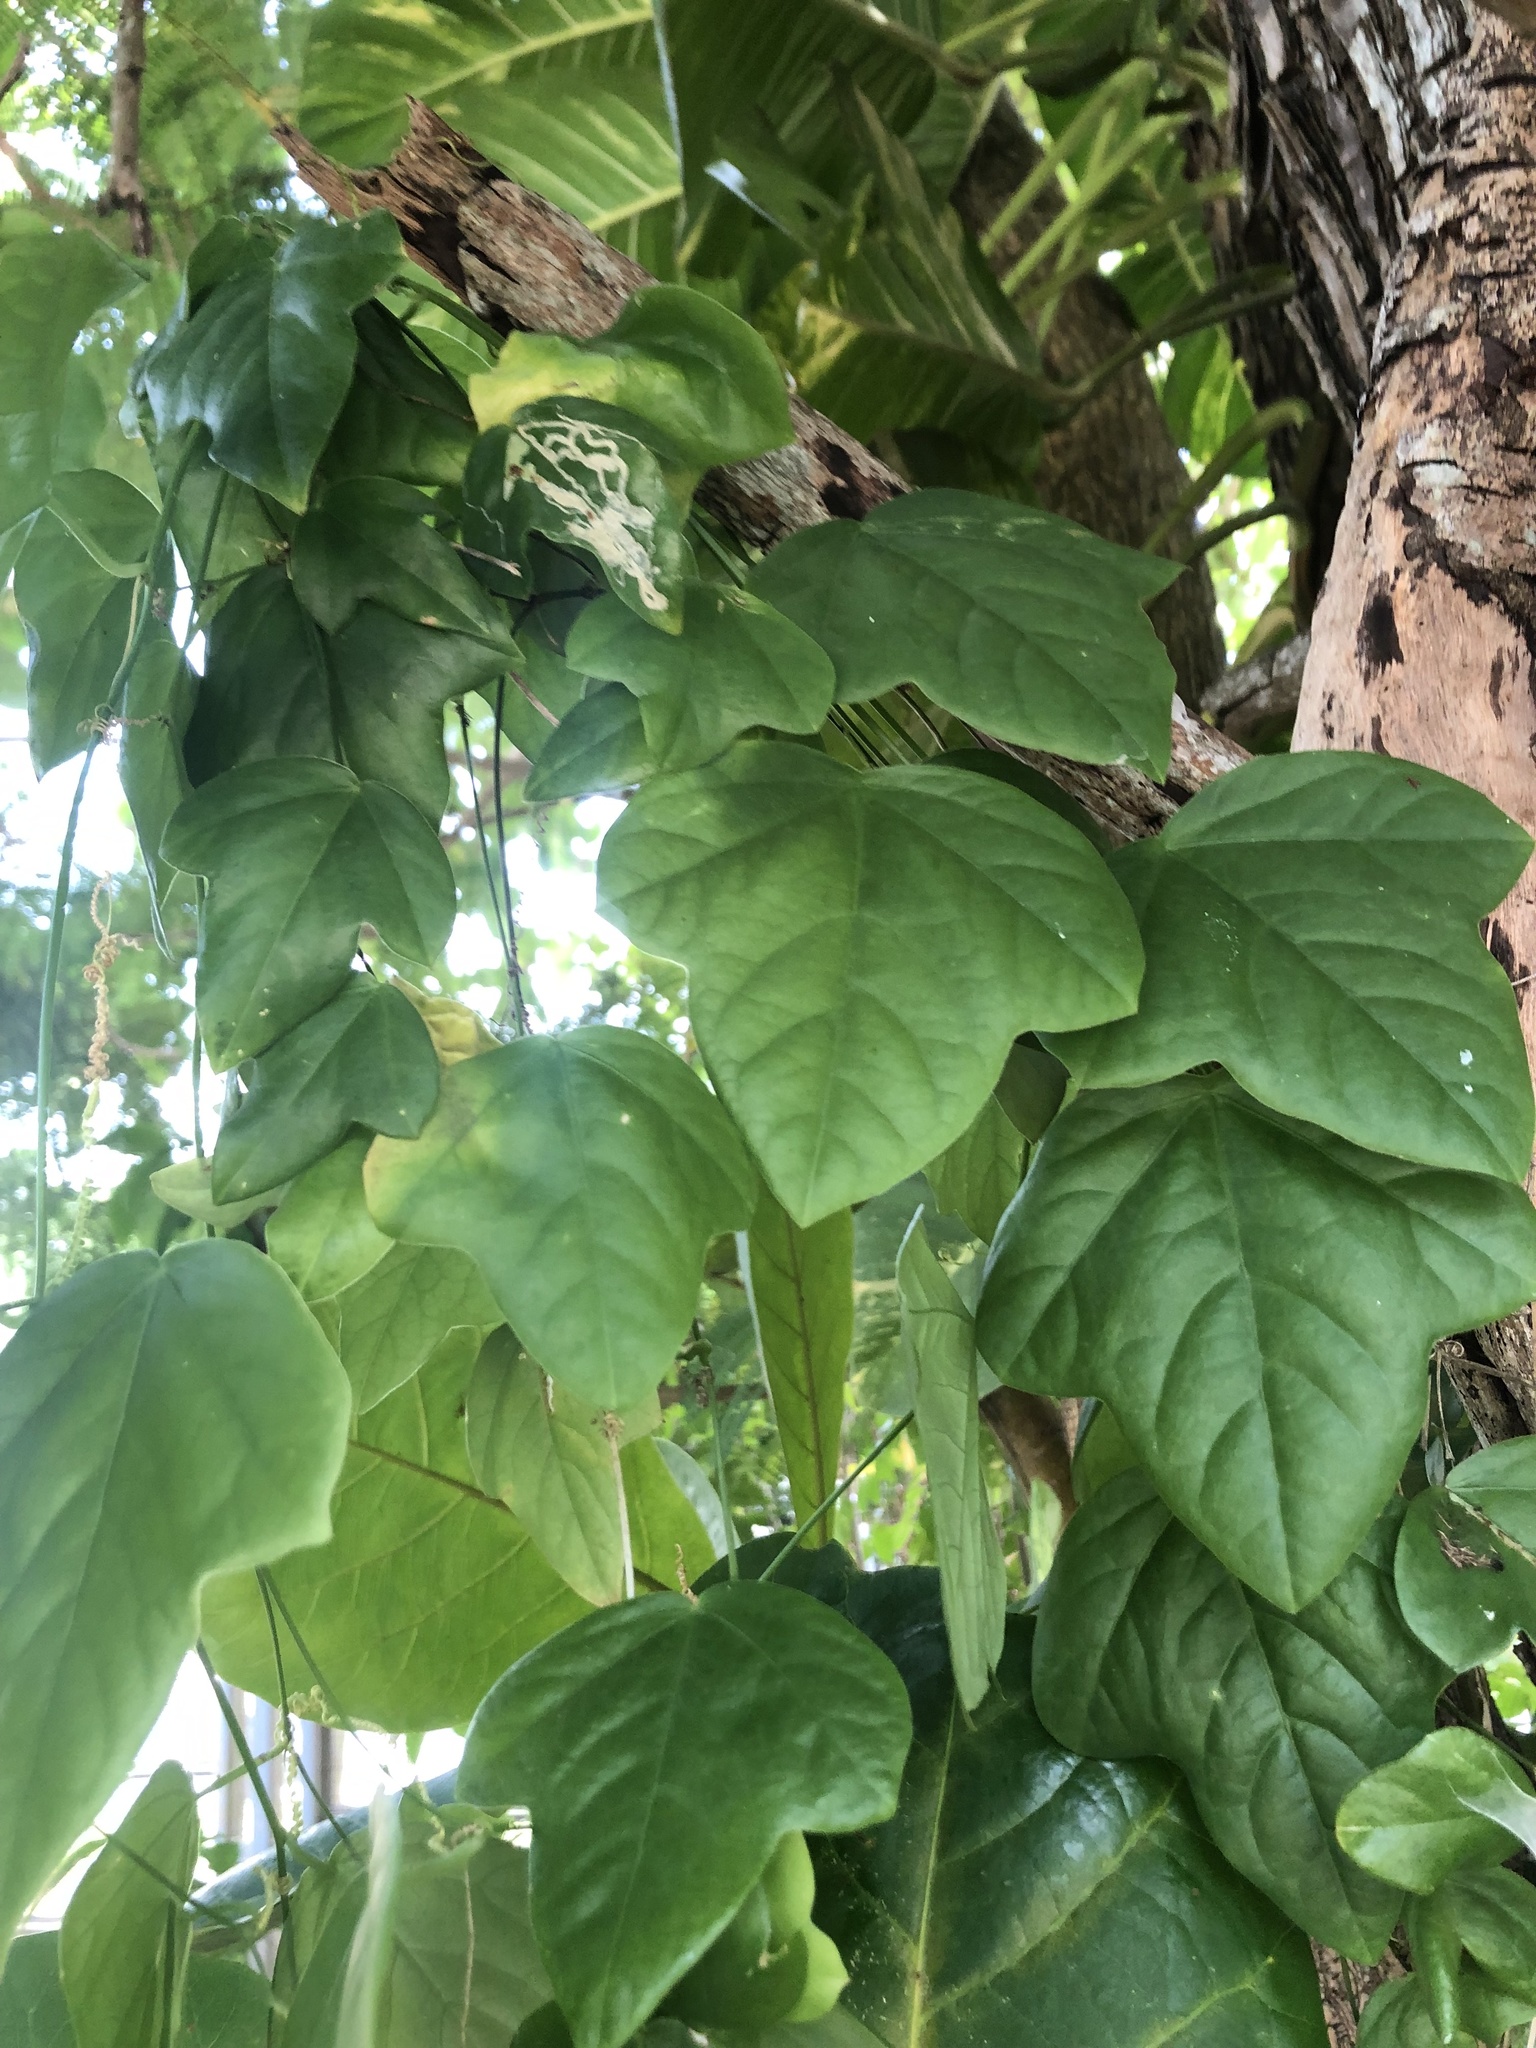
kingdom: Plantae
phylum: Tracheophyta
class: Magnoliopsida
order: Malpighiales
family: Passifloraceae
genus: Passiflora
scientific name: Passiflora suberosa
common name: Wild passionfruit
